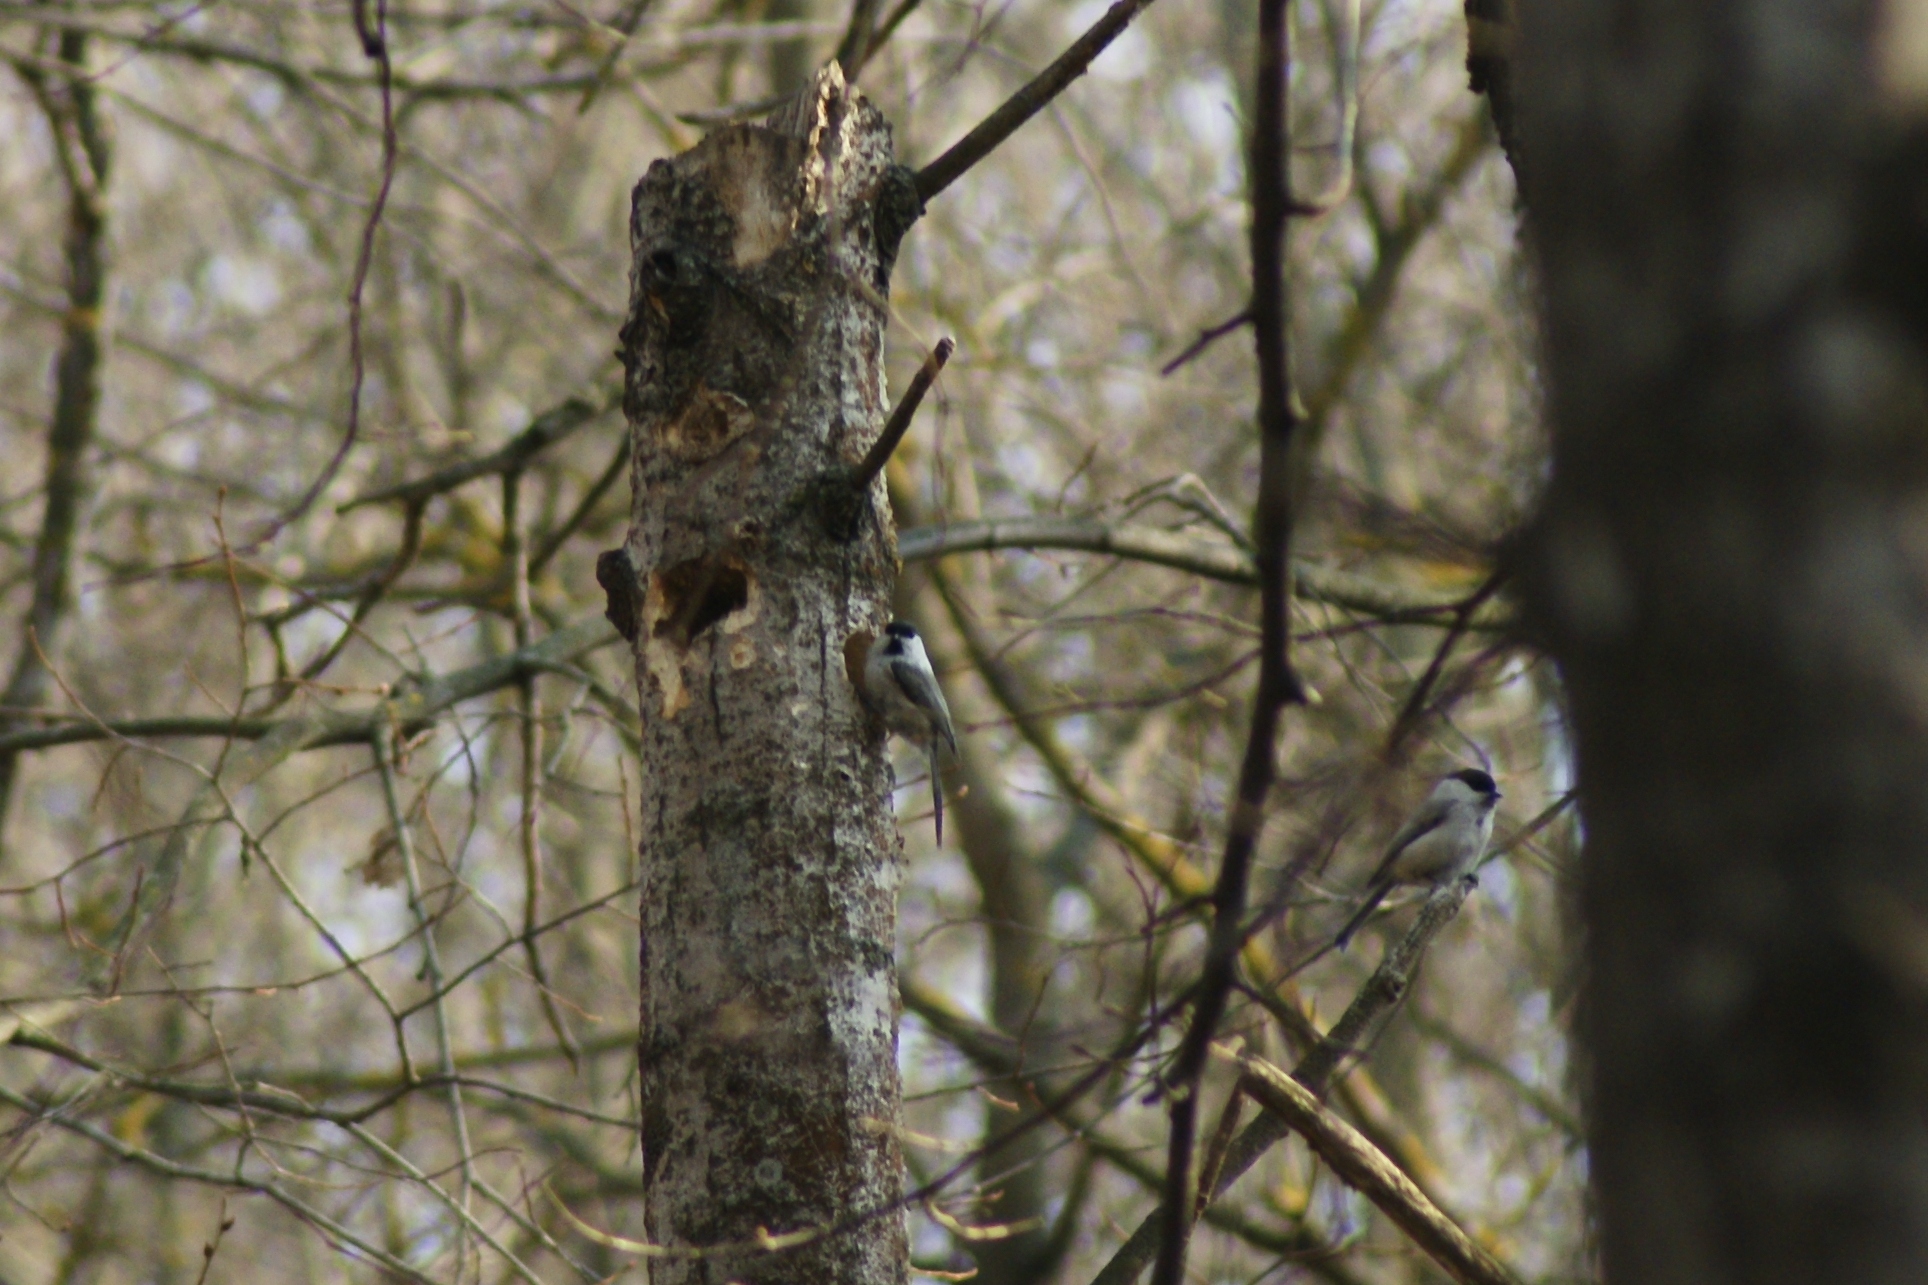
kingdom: Animalia
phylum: Chordata
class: Aves
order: Passeriformes
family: Paridae
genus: Poecile
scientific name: Poecile montanus
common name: Willow tit
